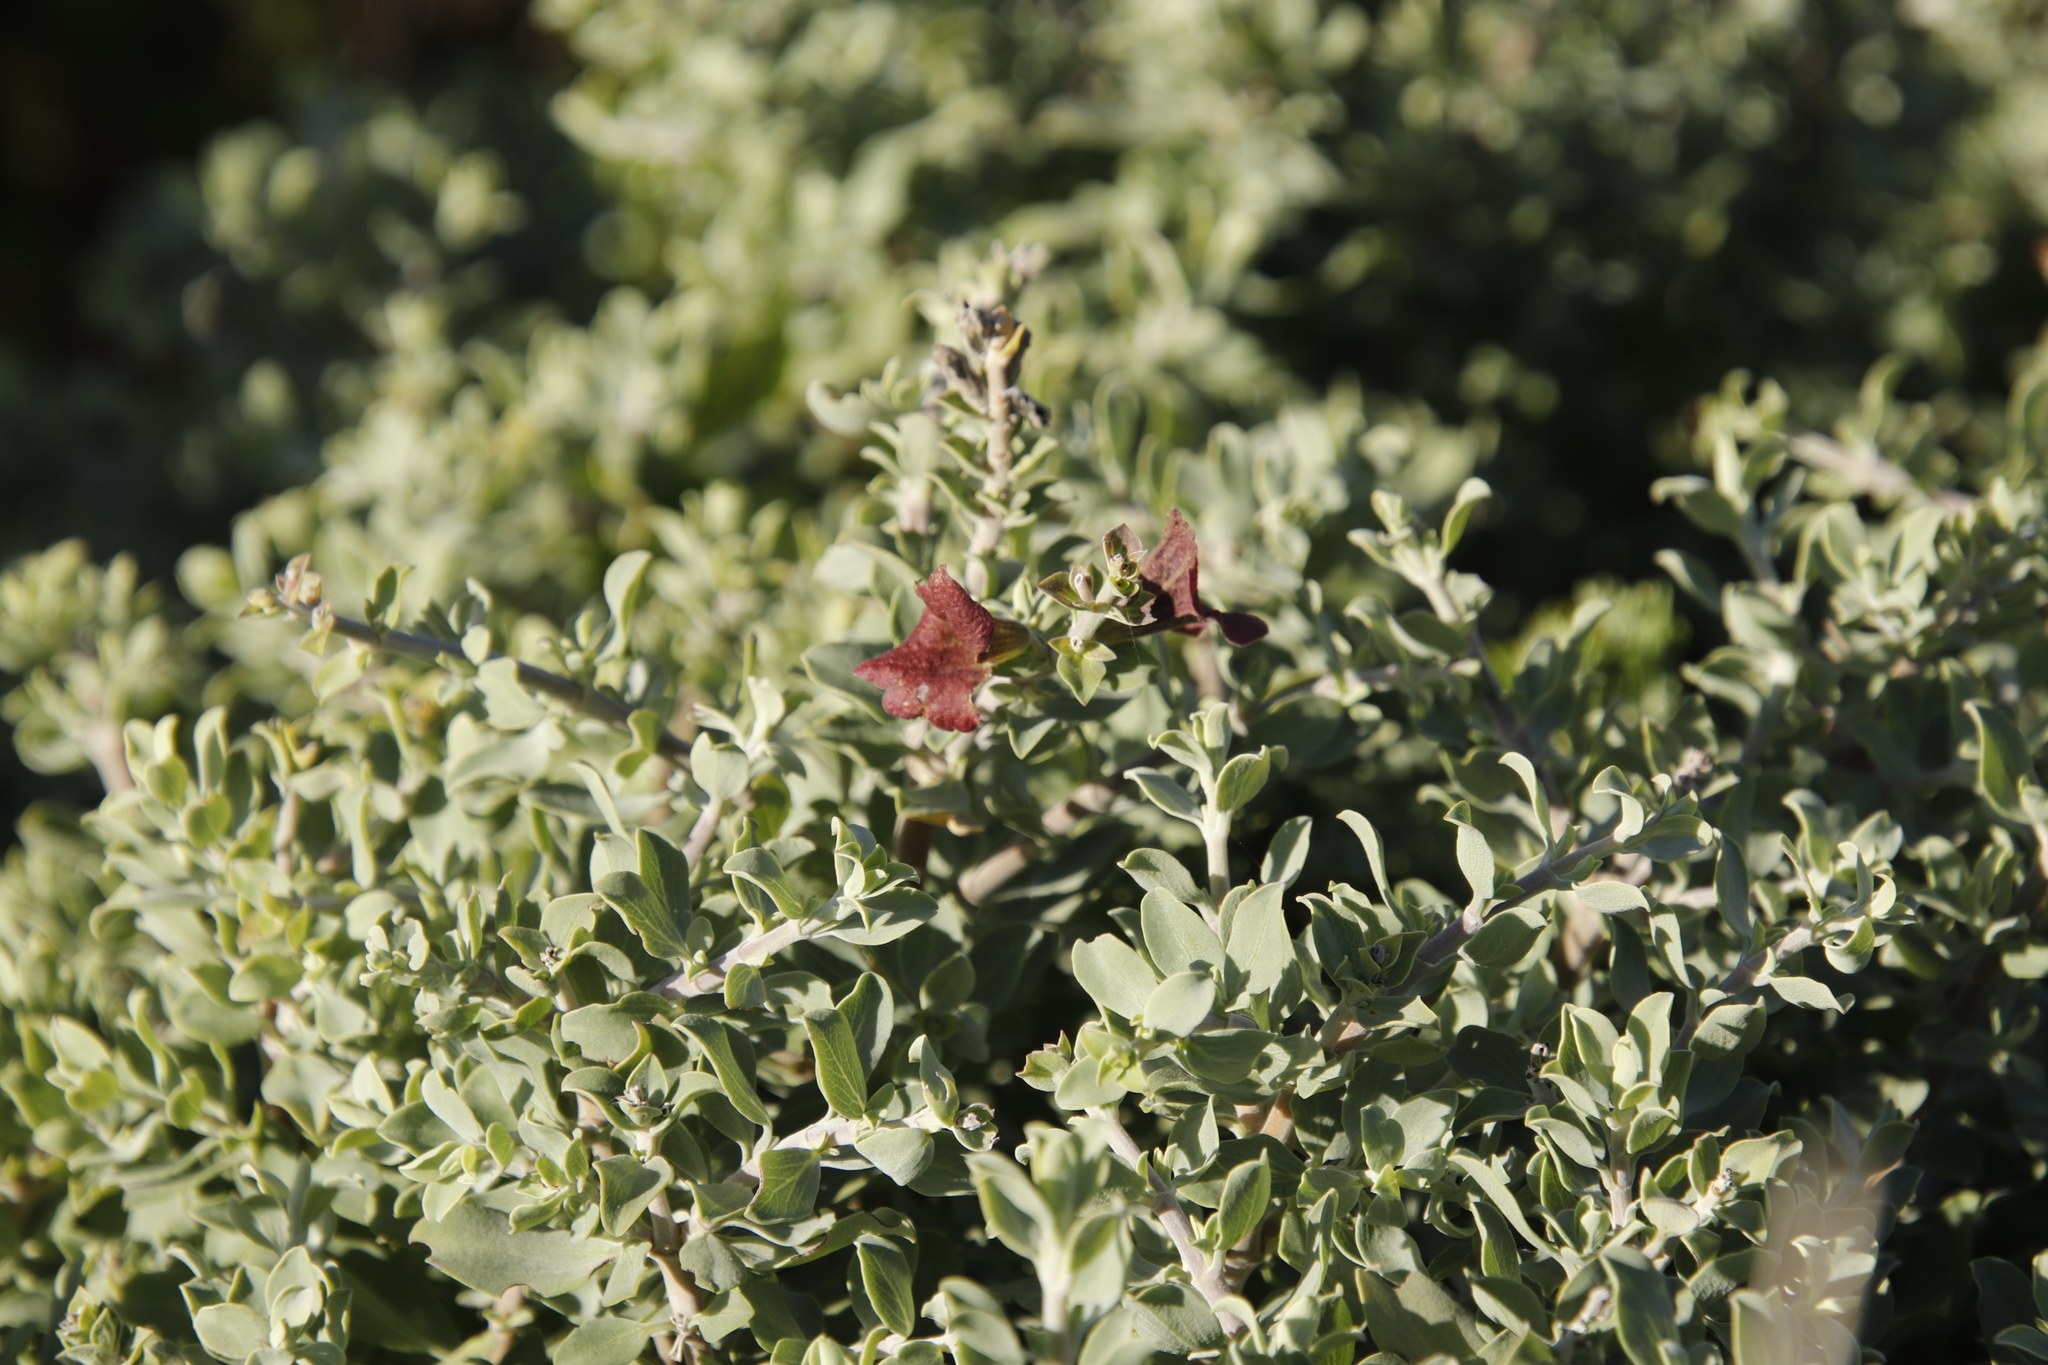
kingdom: Plantae
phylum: Tracheophyta
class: Magnoliopsida
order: Lamiales
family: Lamiaceae
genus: Salvia
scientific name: Salvia aurea
